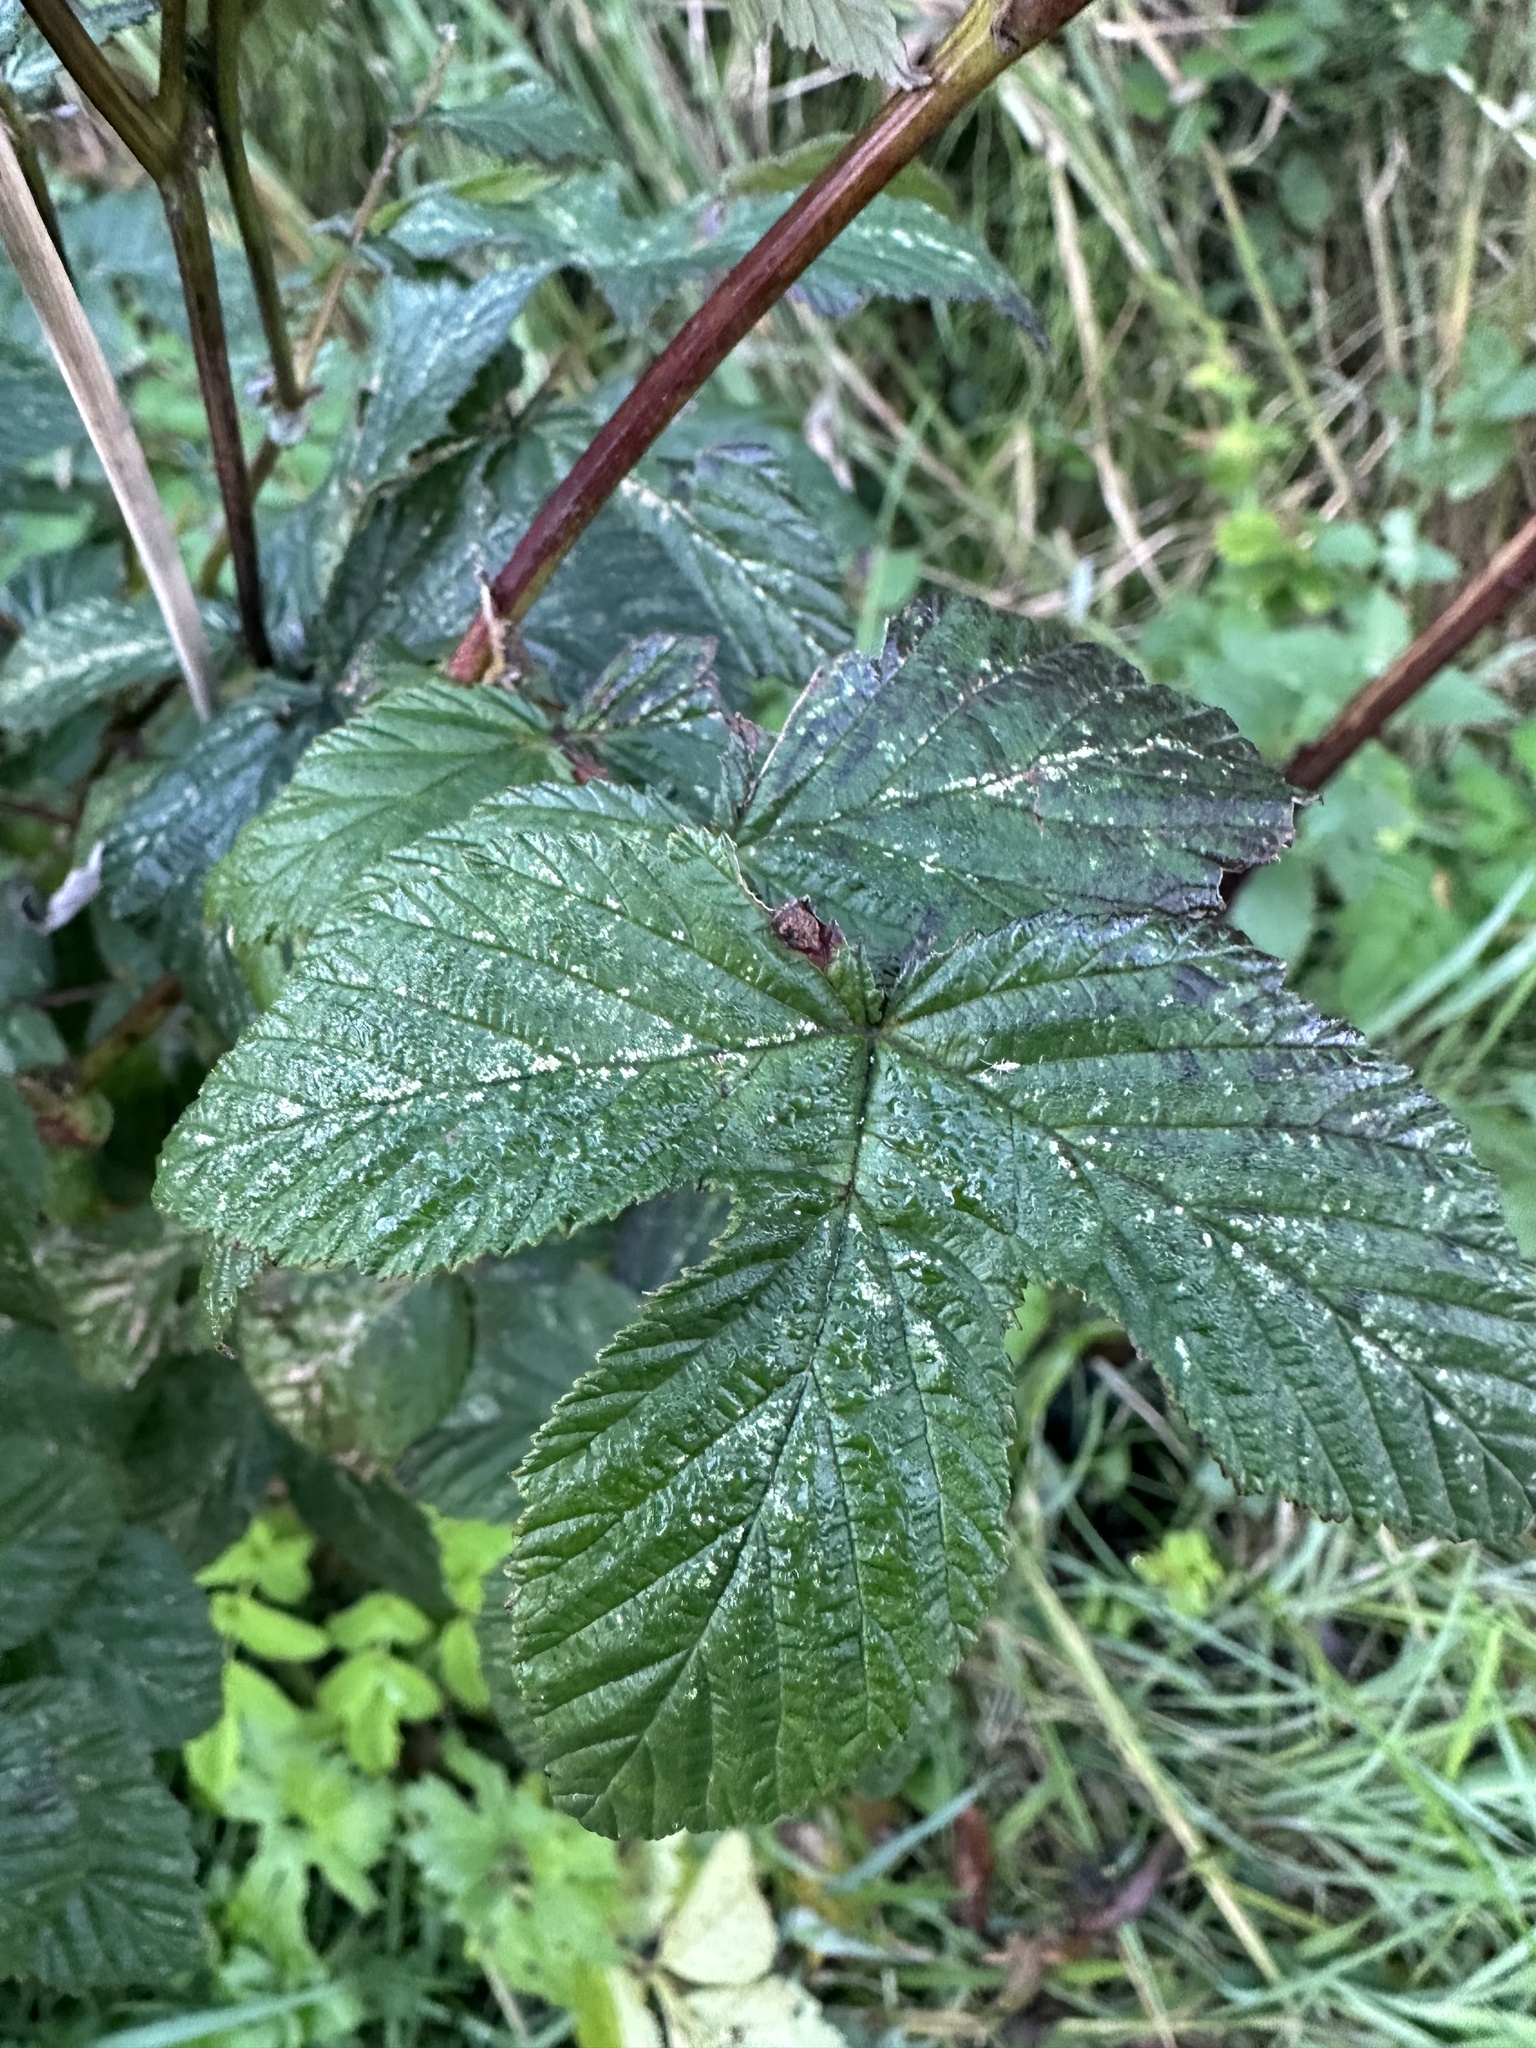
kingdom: Plantae
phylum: Tracheophyta
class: Magnoliopsida
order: Rosales
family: Rosaceae
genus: Filipendula
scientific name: Filipendula ulmaria
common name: Meadowsweet
